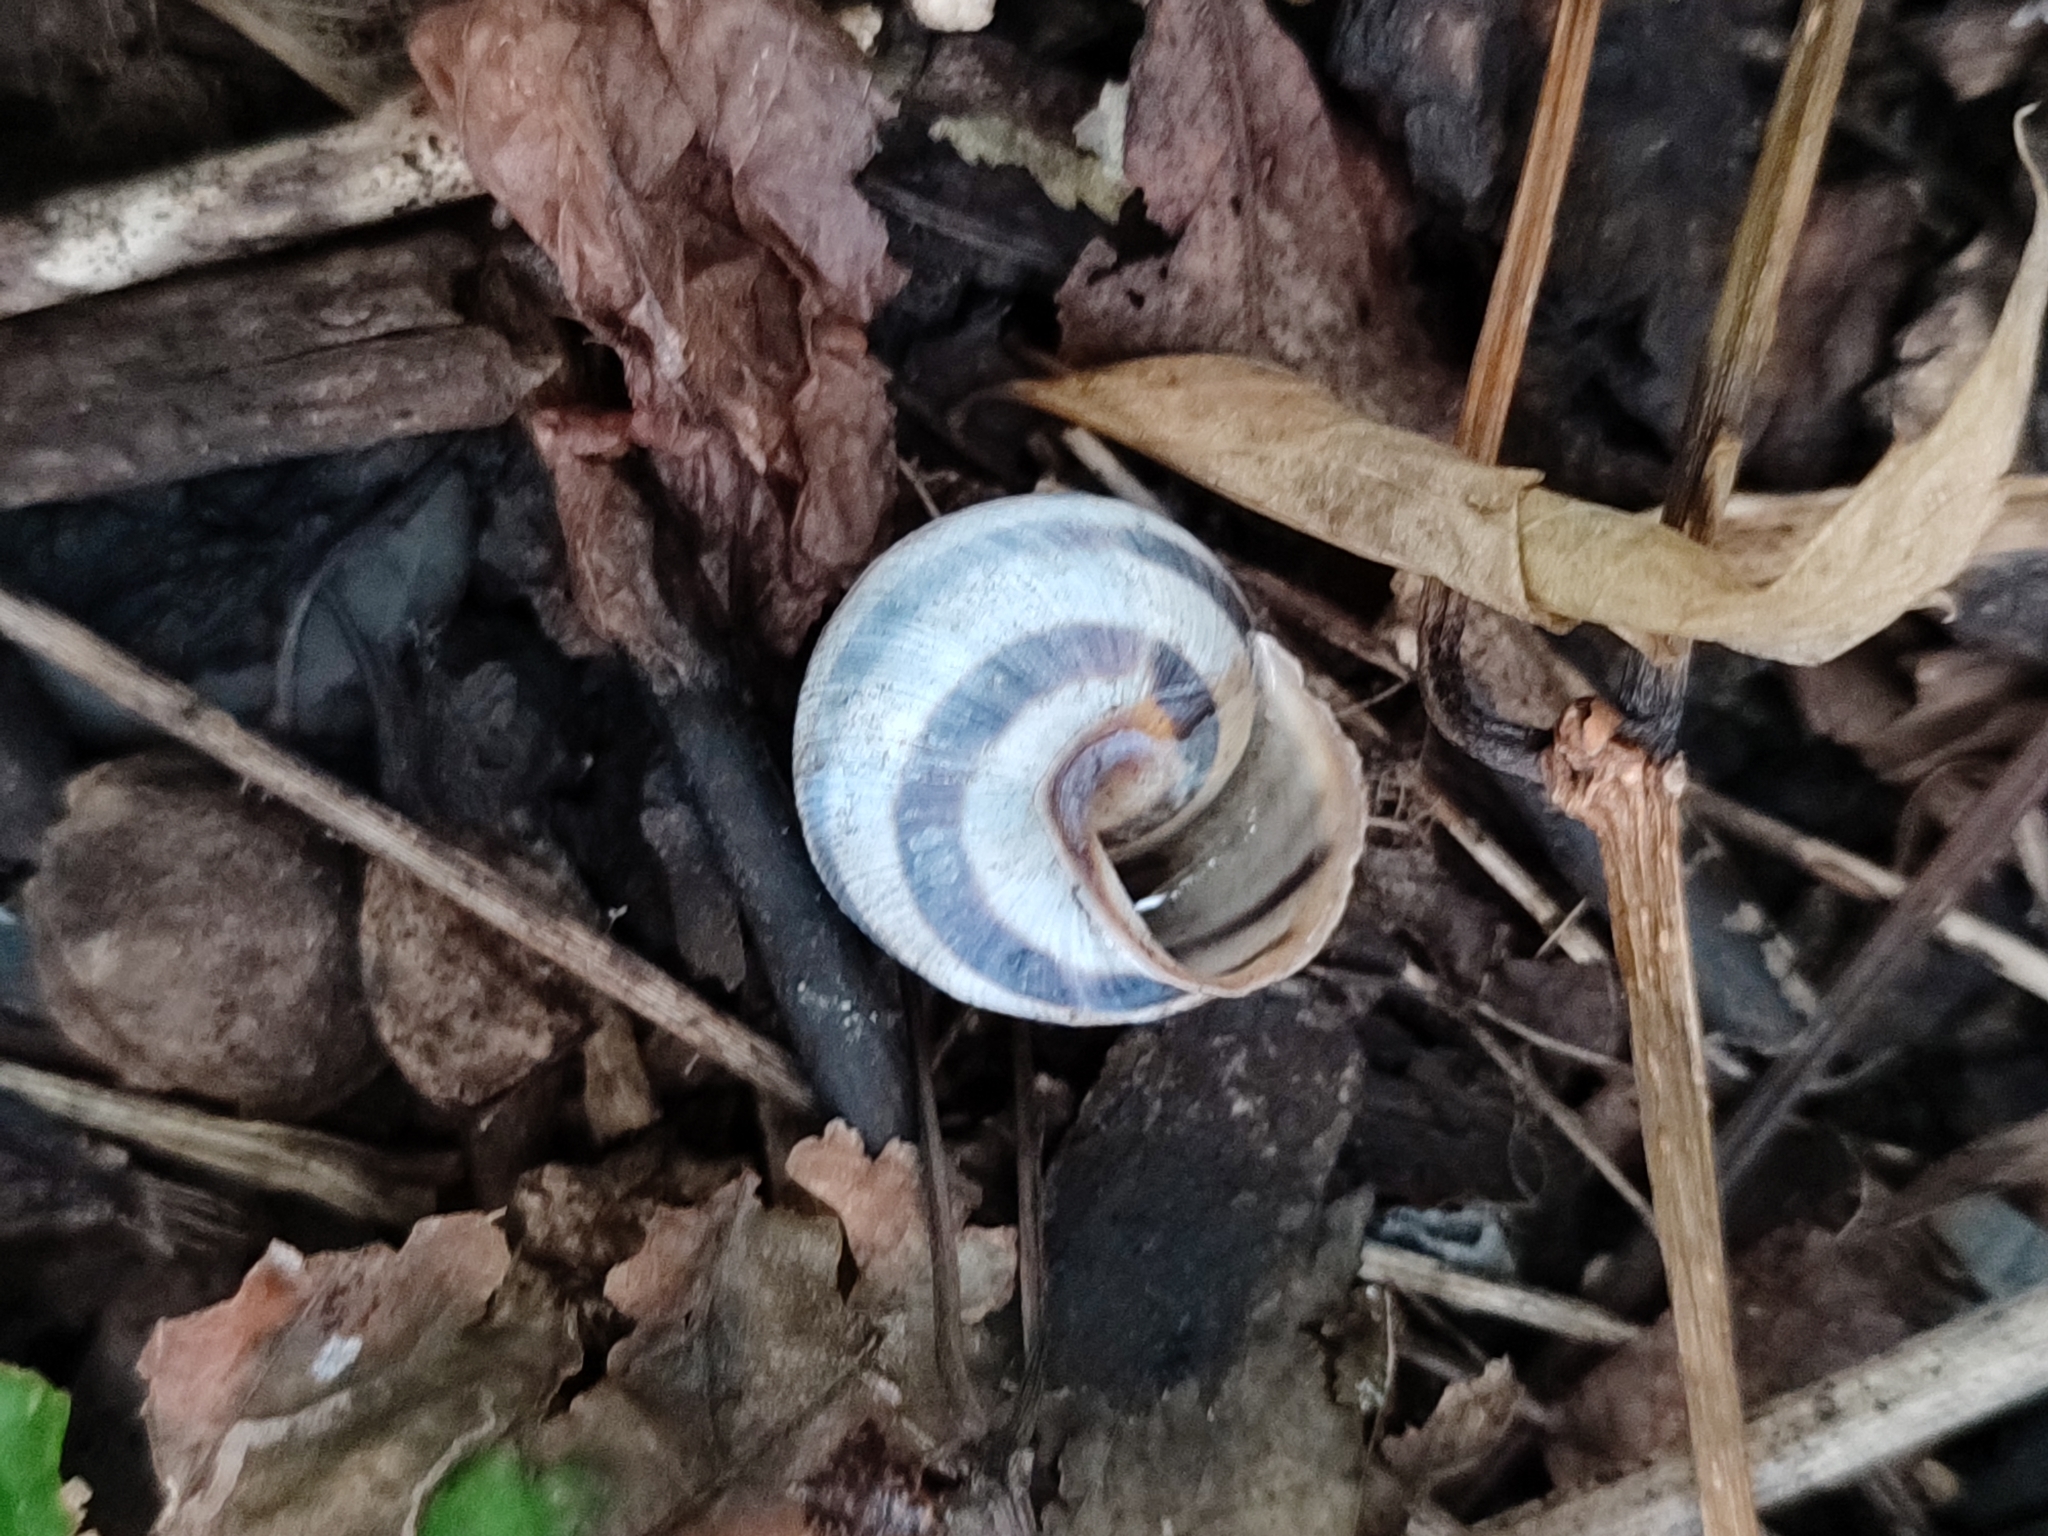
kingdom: Animalia
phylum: Mollusca
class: Gastropoda
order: Stylommatophora
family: Helicidae
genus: Caucasotachea
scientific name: Caucasotachea vindobonensis
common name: European helicid land snail
